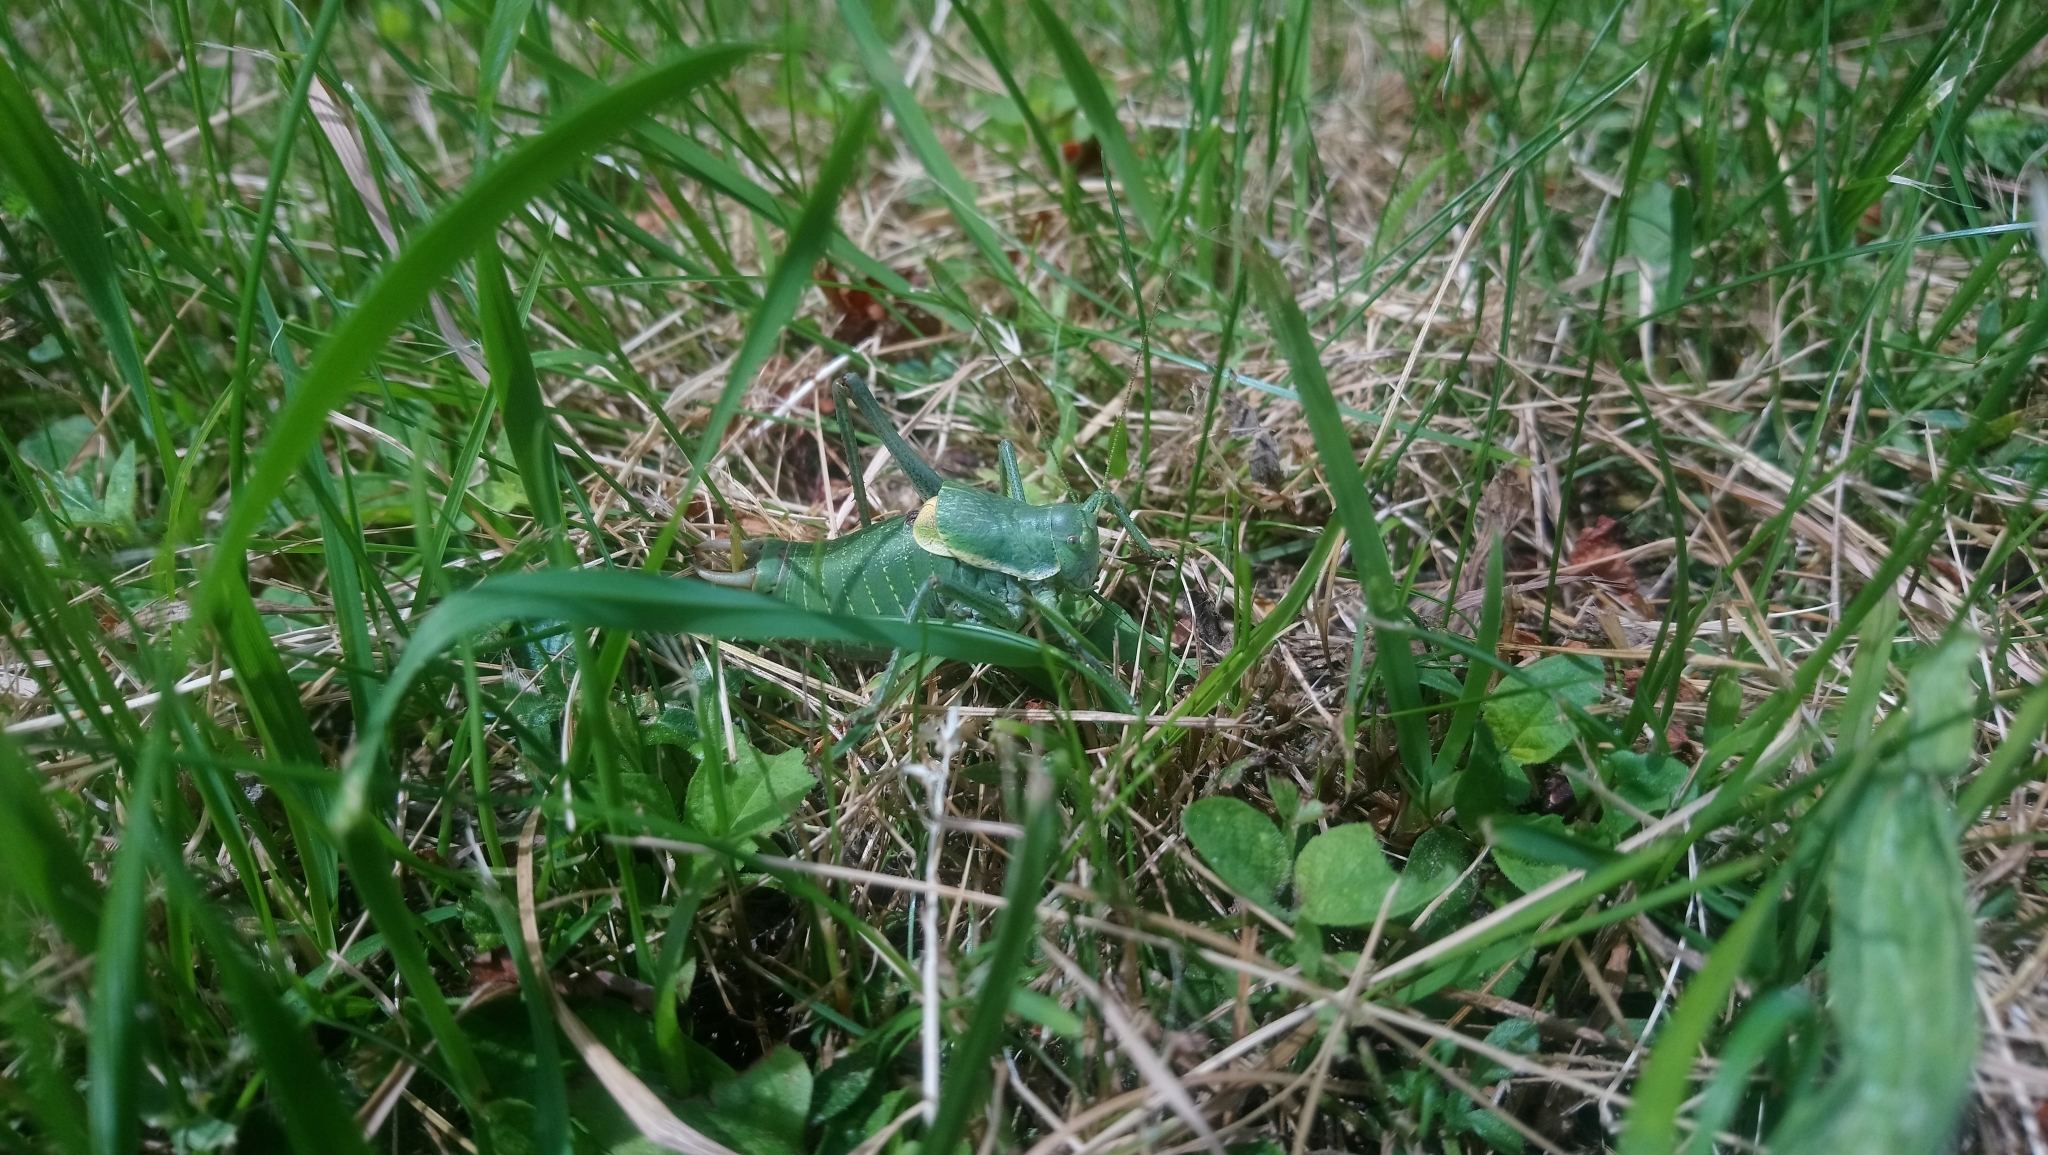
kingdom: Animalia
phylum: Arthropoda
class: Insecta
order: Orthoptera
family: Tettigoniidae
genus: Polysarcus
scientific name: Polysarcus denticauda
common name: Large saw-tailed bush-cricket
